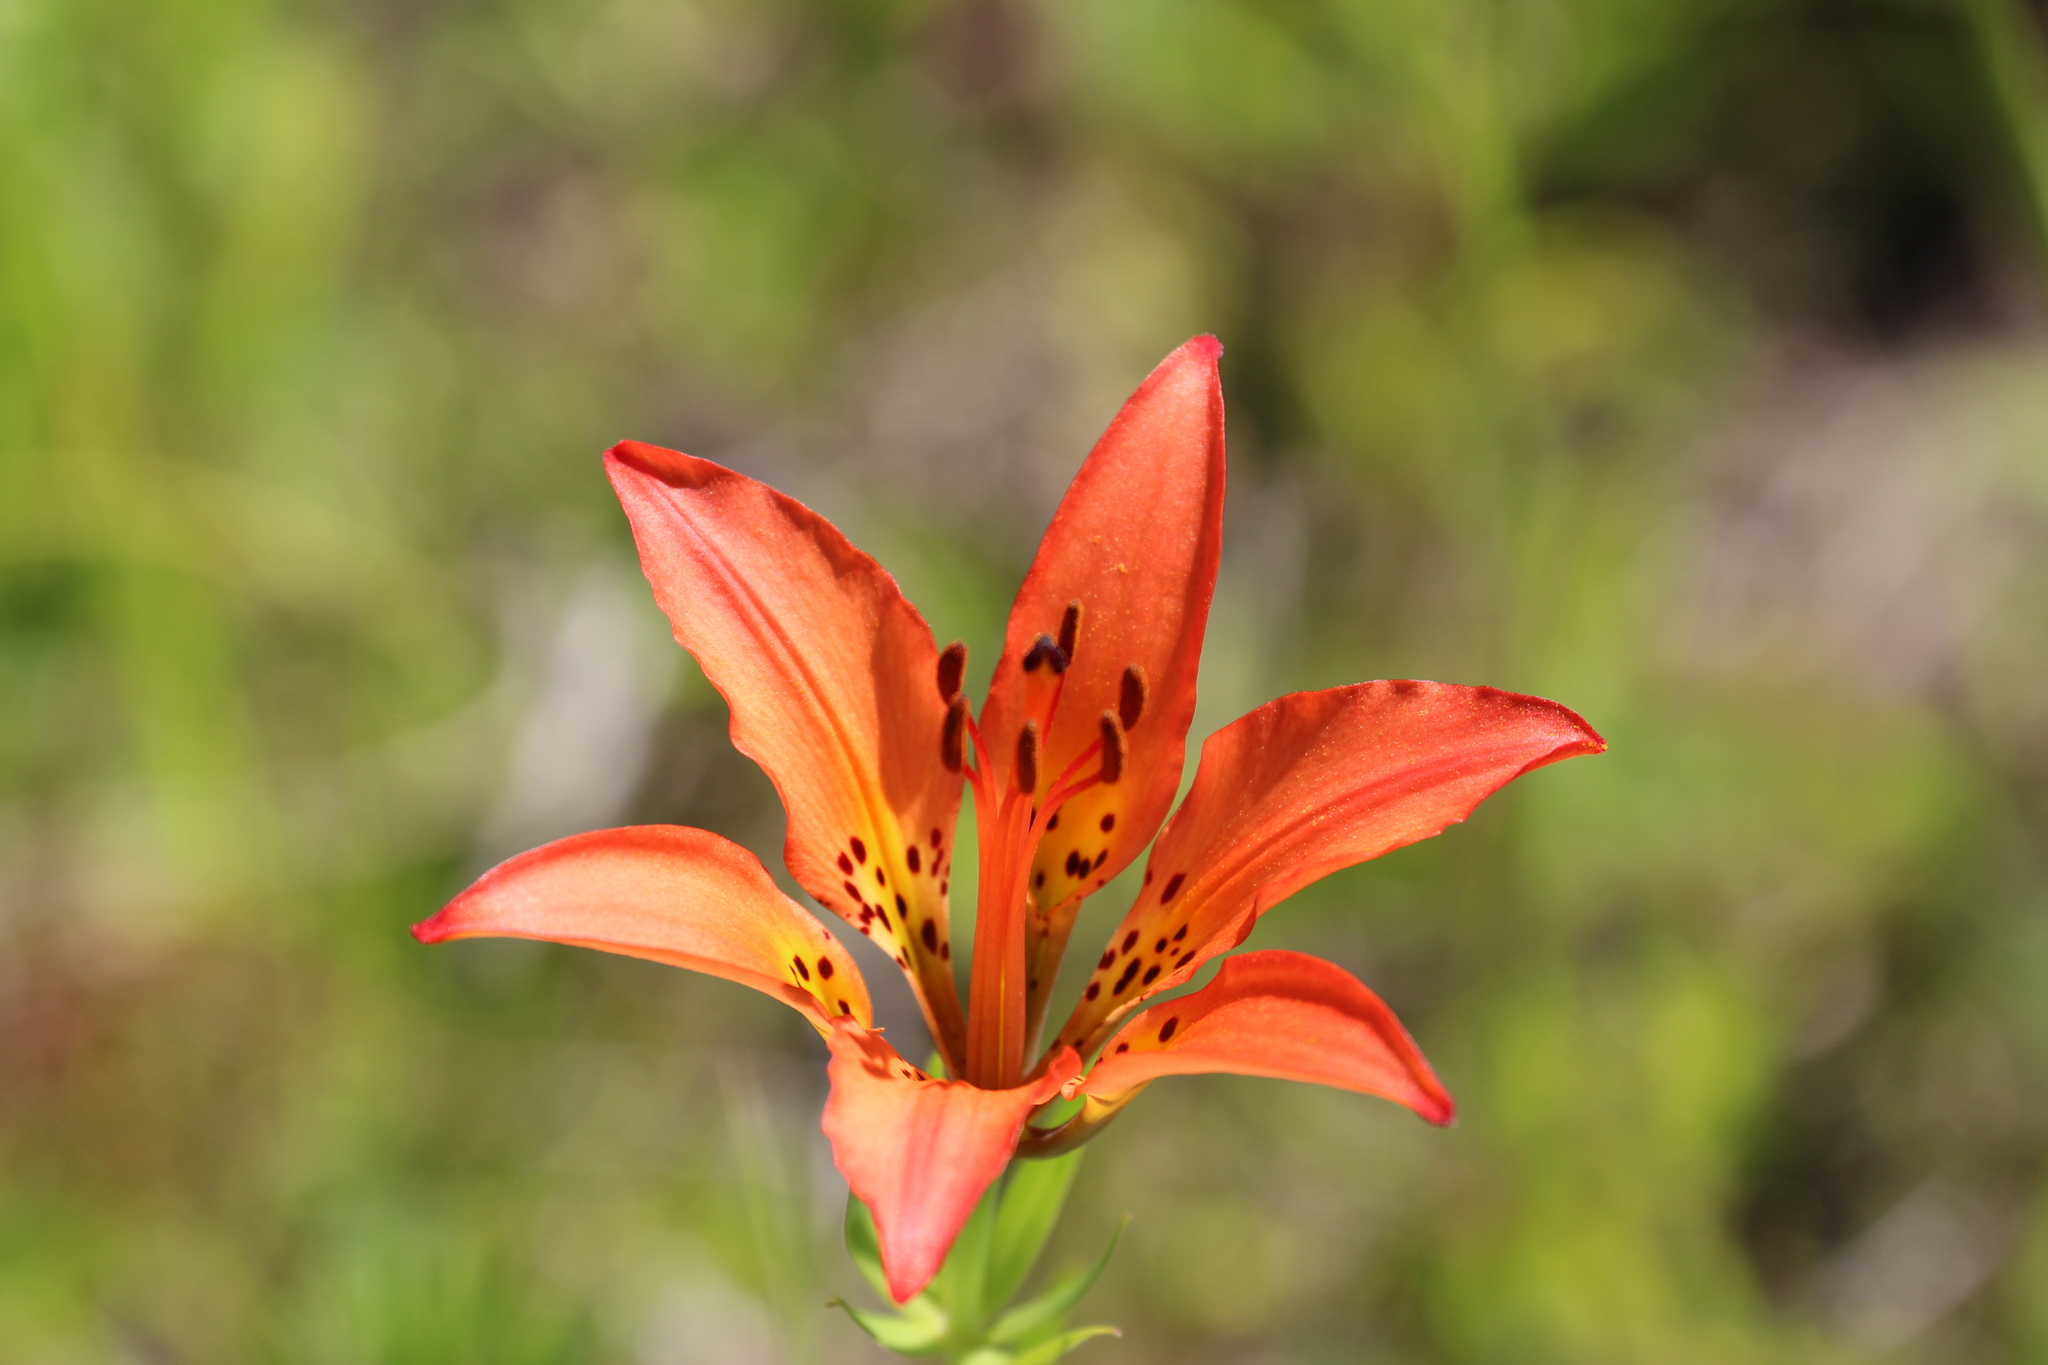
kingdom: Plantae
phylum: Tracheophyta
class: Liliopsida
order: Liliales
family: Liliaceae
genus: Lilium
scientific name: Lilium philadelphicum
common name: Red lily
